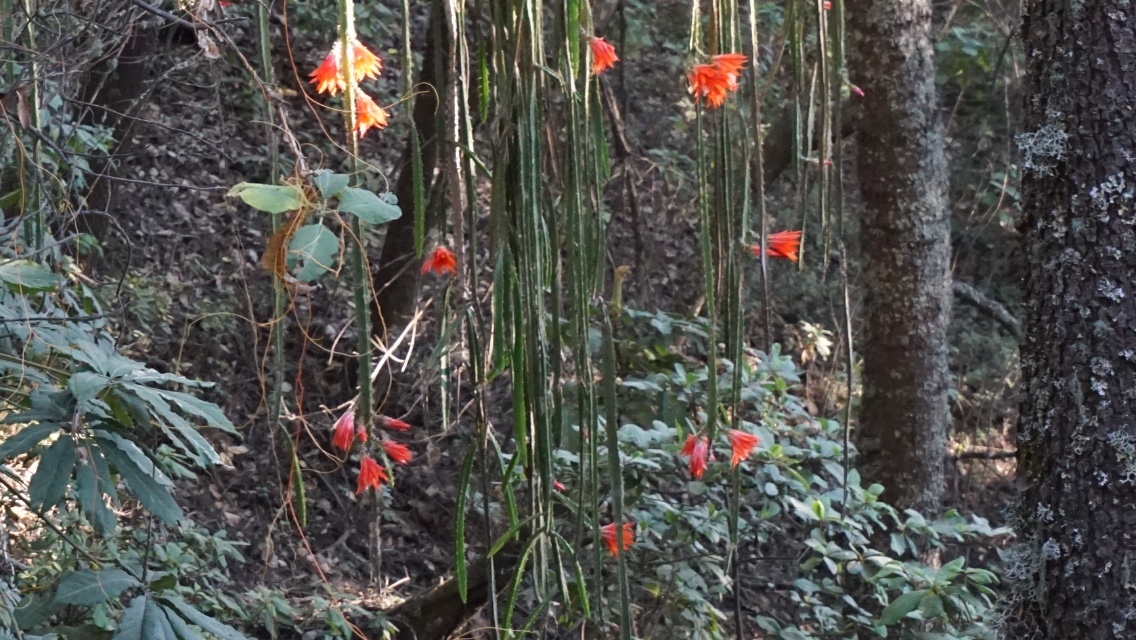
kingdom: Plantae
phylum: Tracheophyta
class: Magnoliopsida
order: Caryophyllales
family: Cactaceae
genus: Disocactus
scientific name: Disocactus speciosus
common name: Sun cereus
